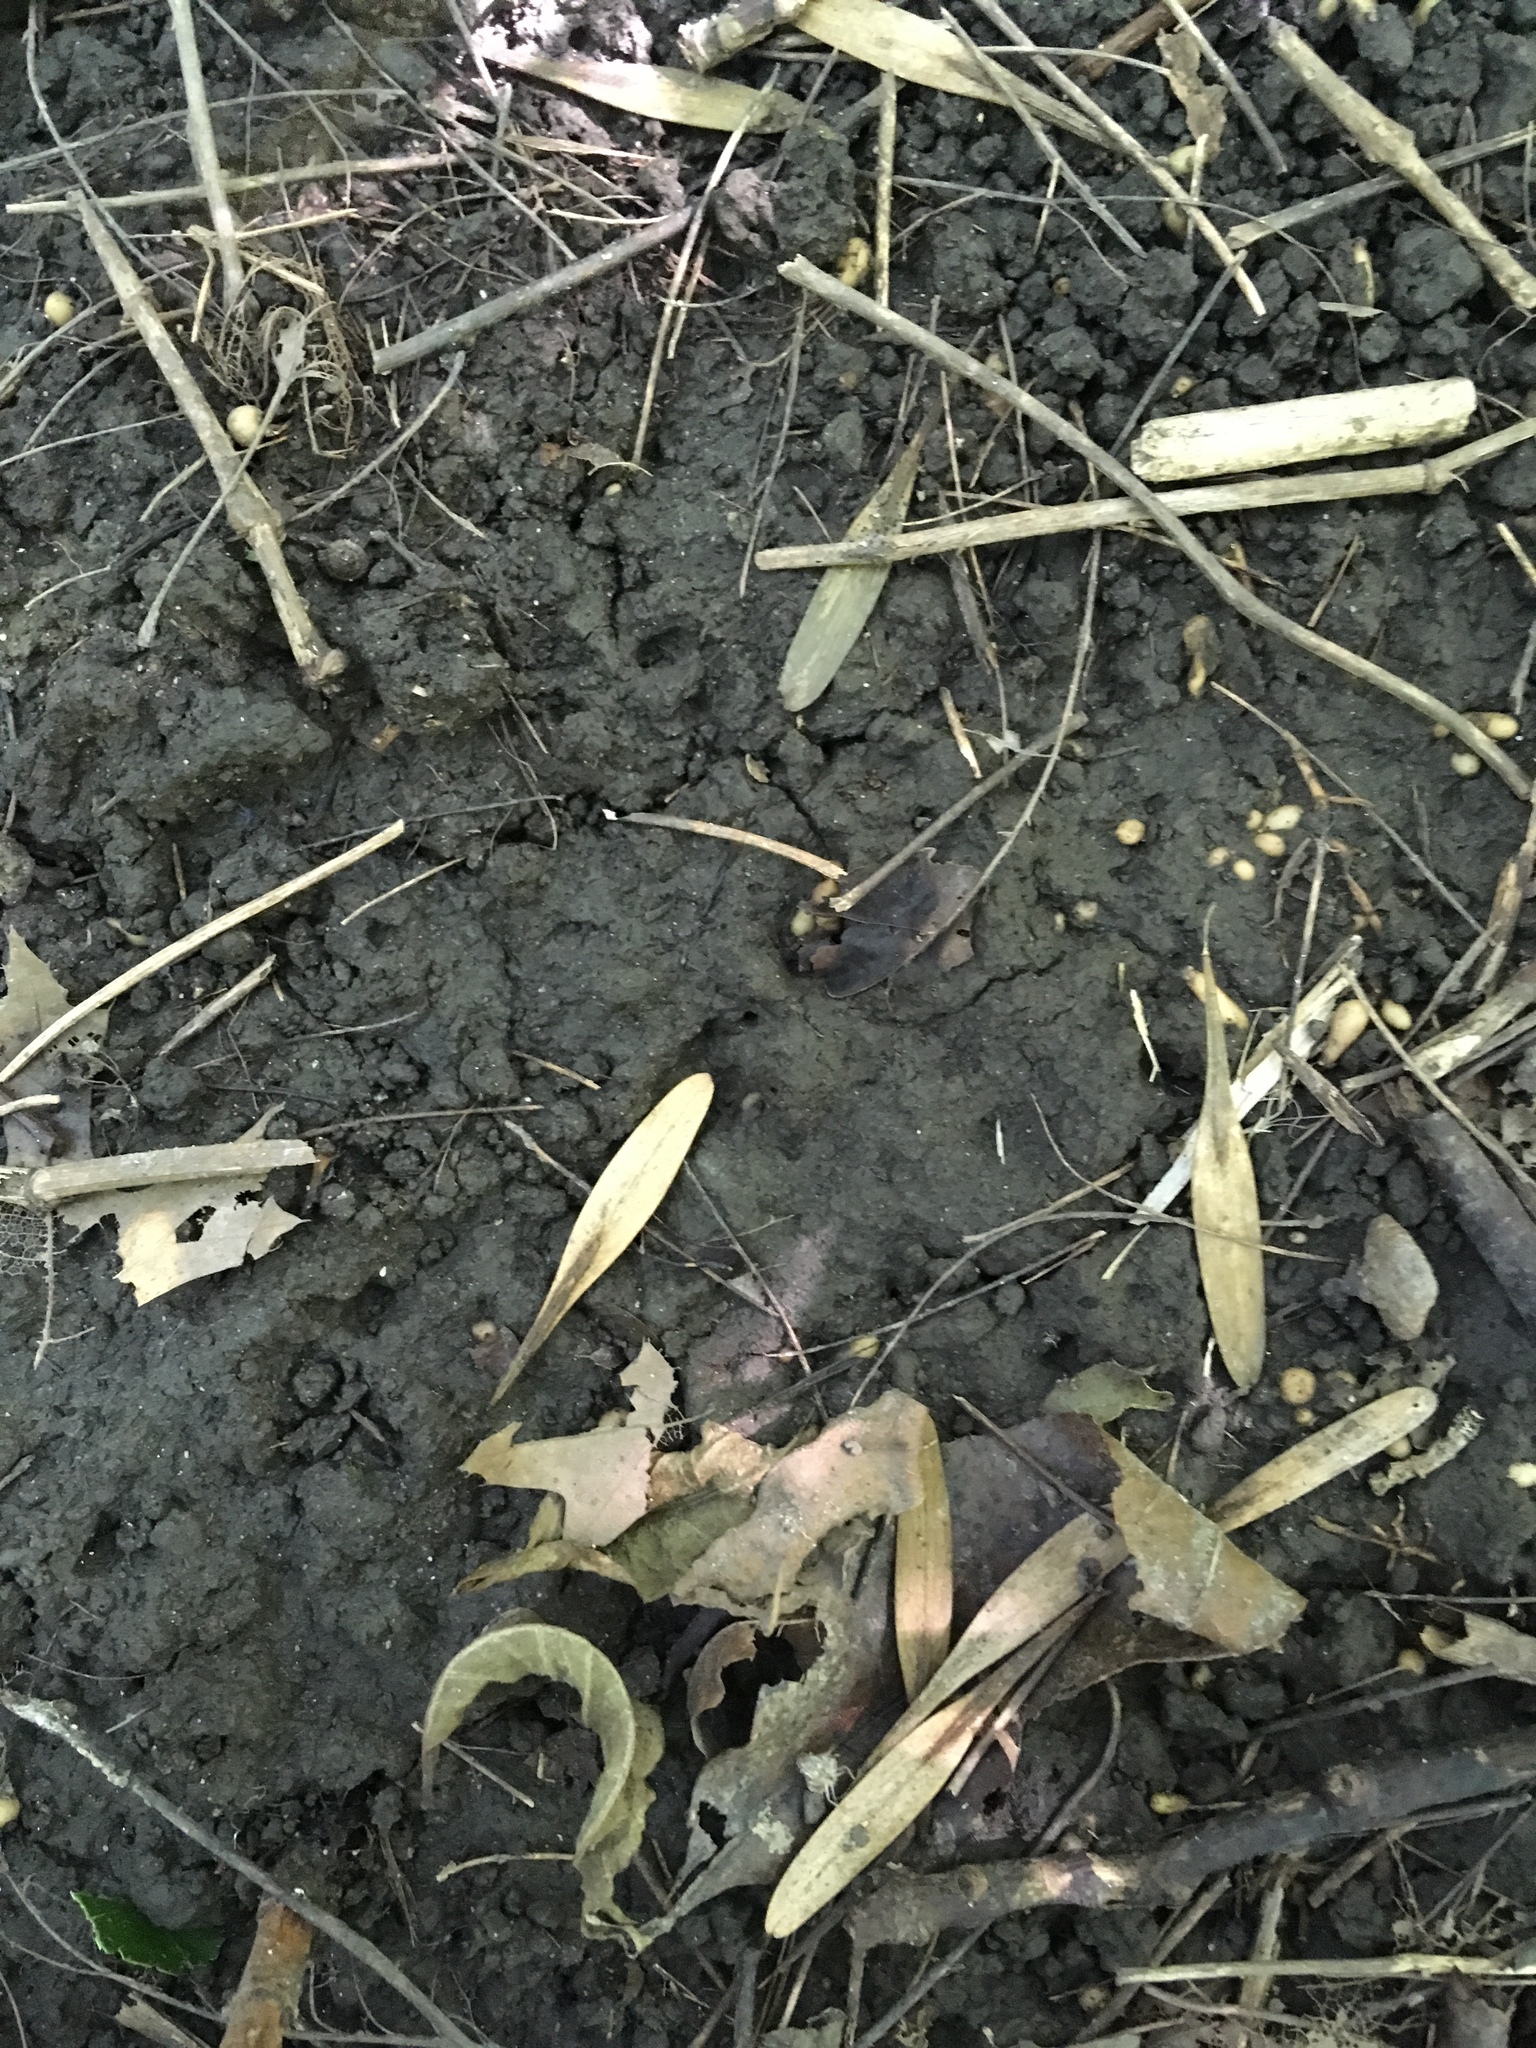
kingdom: Plantae
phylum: Tracheophyta
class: Magnoliopsida
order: Lamiales
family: Oleaceae
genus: Fraxinus
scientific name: Fraxinus pennsylvanica
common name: Green ash
